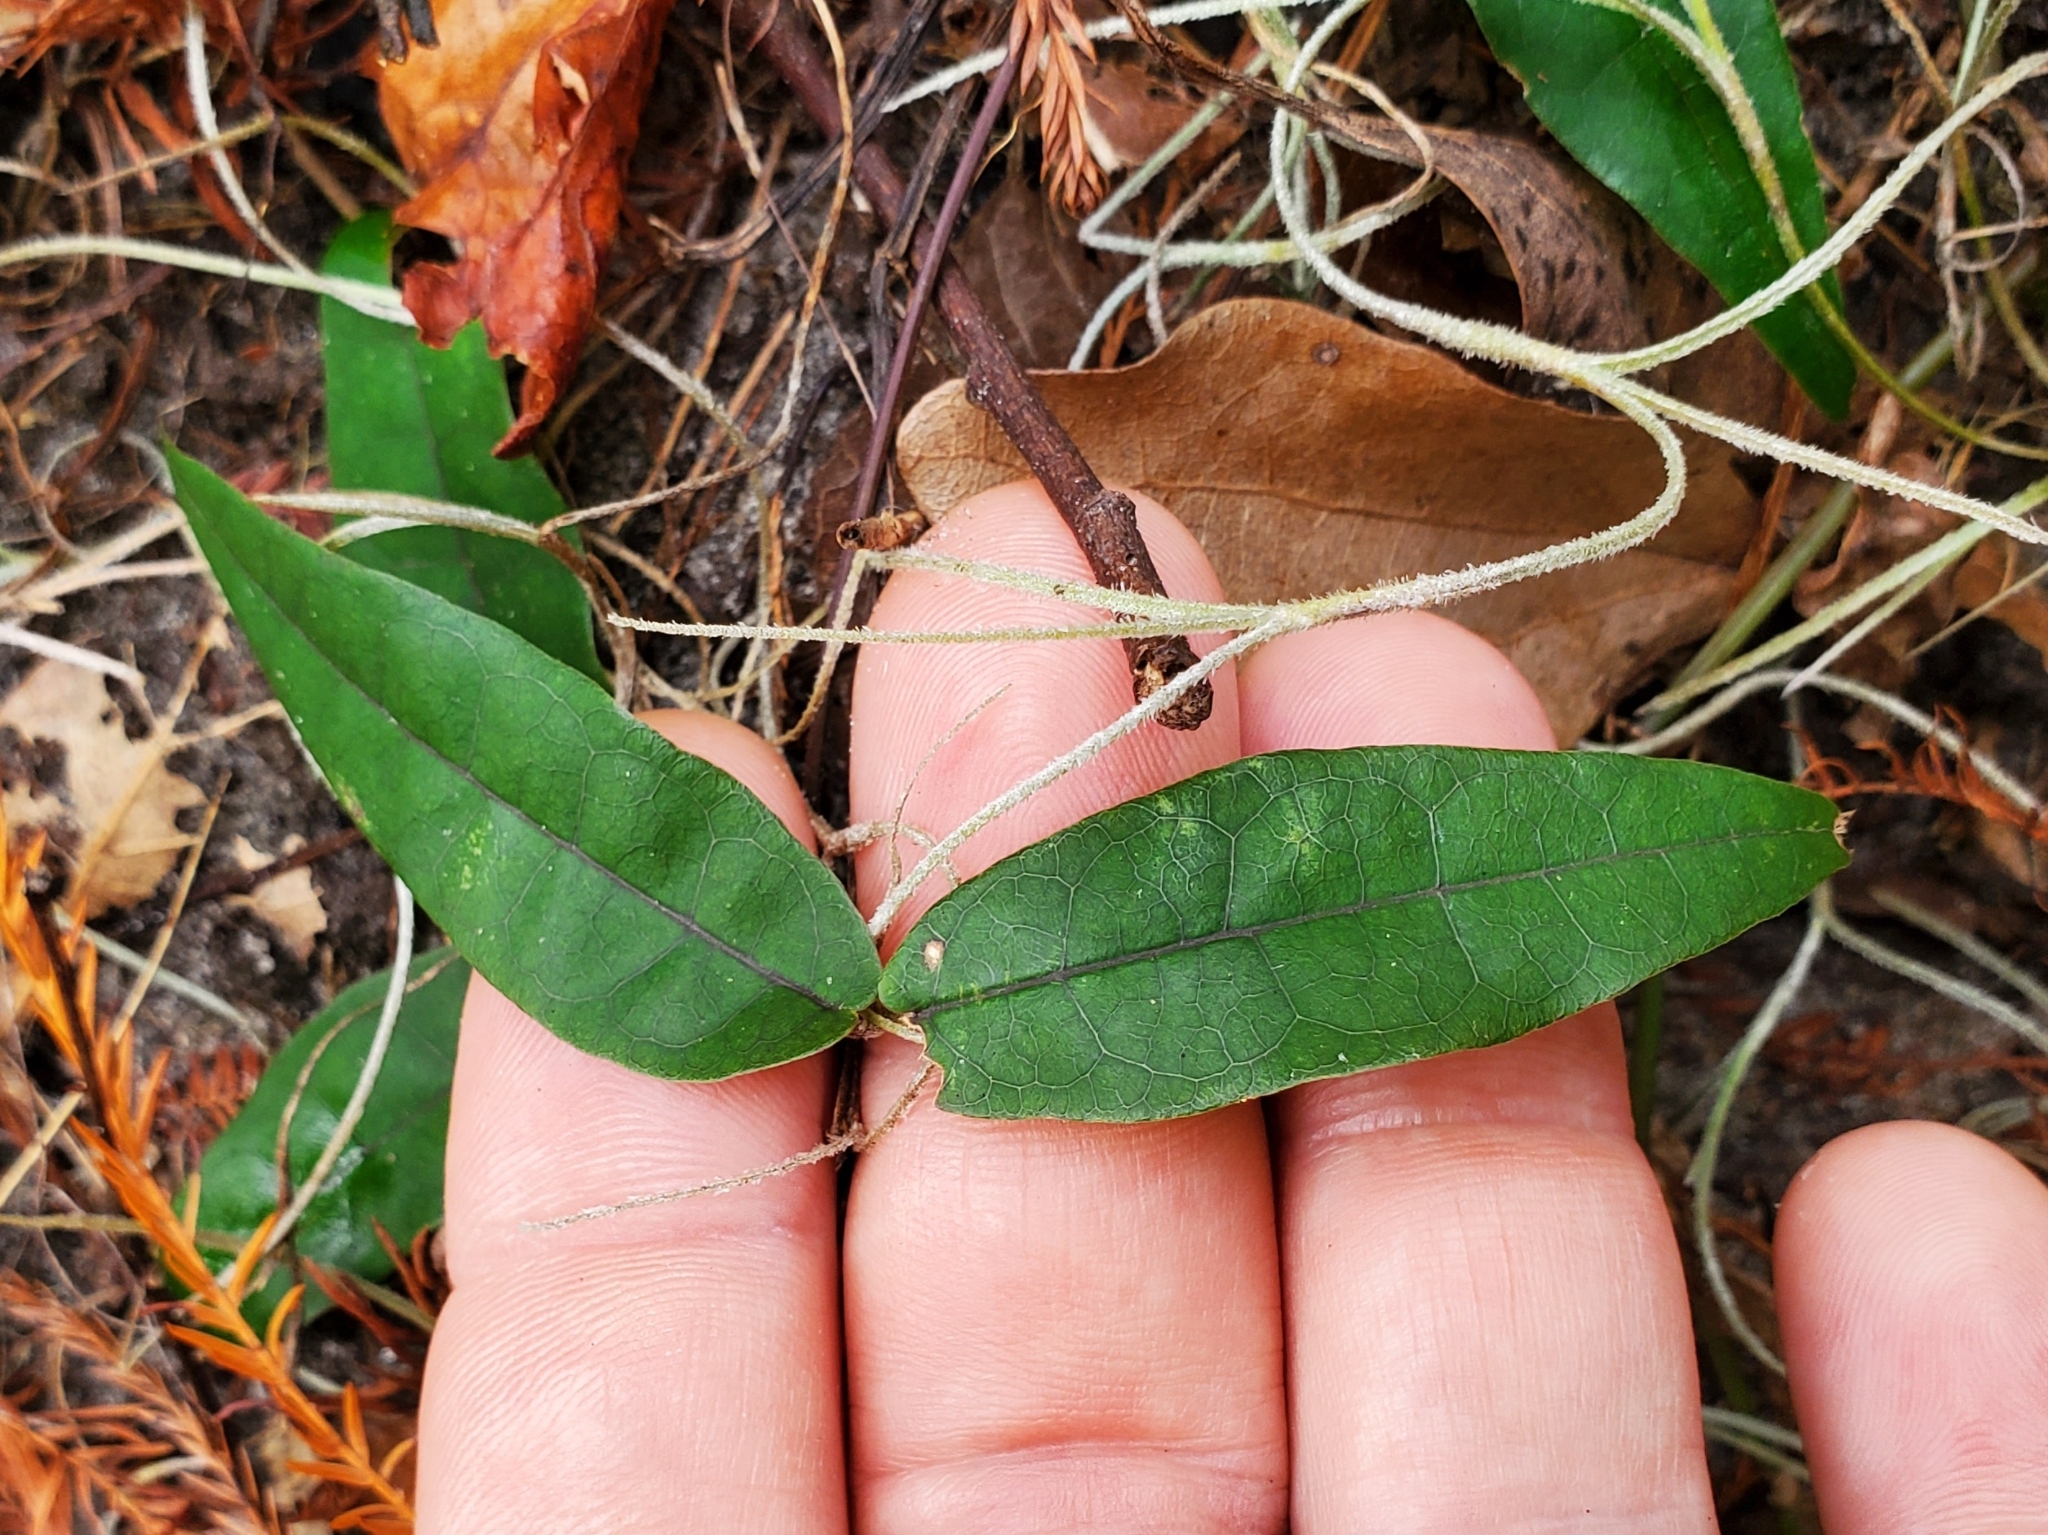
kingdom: Plantae
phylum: Tracheophyta
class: Magnoliopsida
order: Gentianales
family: Gelsemiaceae
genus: Gelsemium
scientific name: Gelsemium sempervirens
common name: Carolina-jasmine
